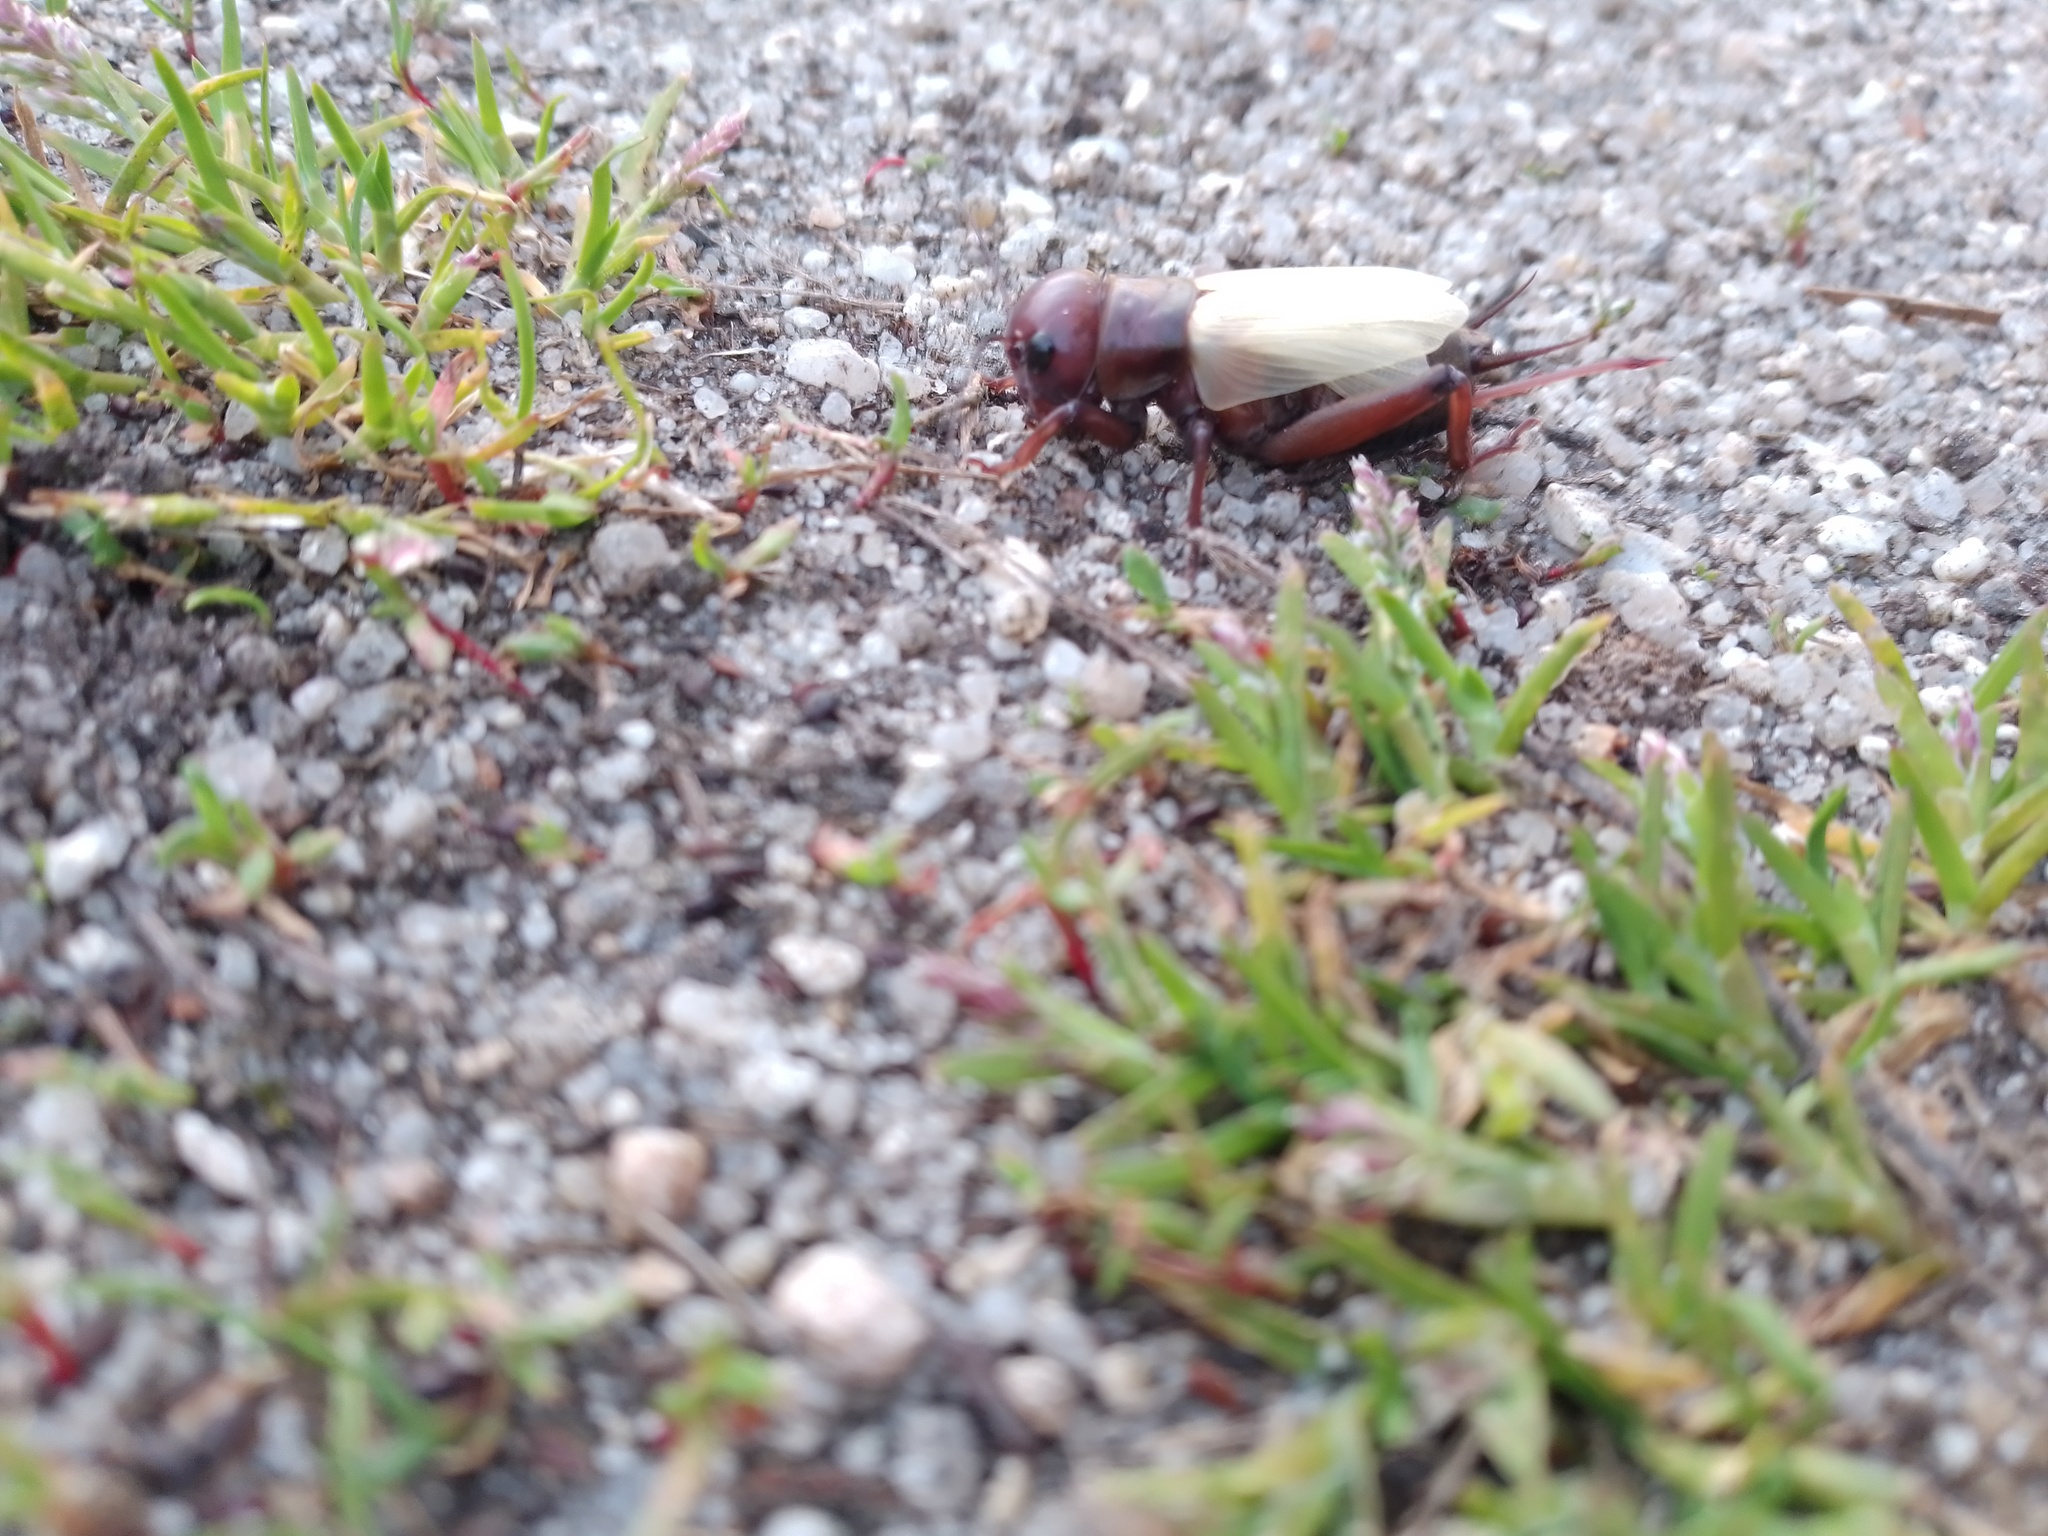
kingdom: Animalia
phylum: Arthropoda
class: Insecta
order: Orthoptera
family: Gryllidae
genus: Gryllus
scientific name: Gryllus campestris
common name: Field cricket
